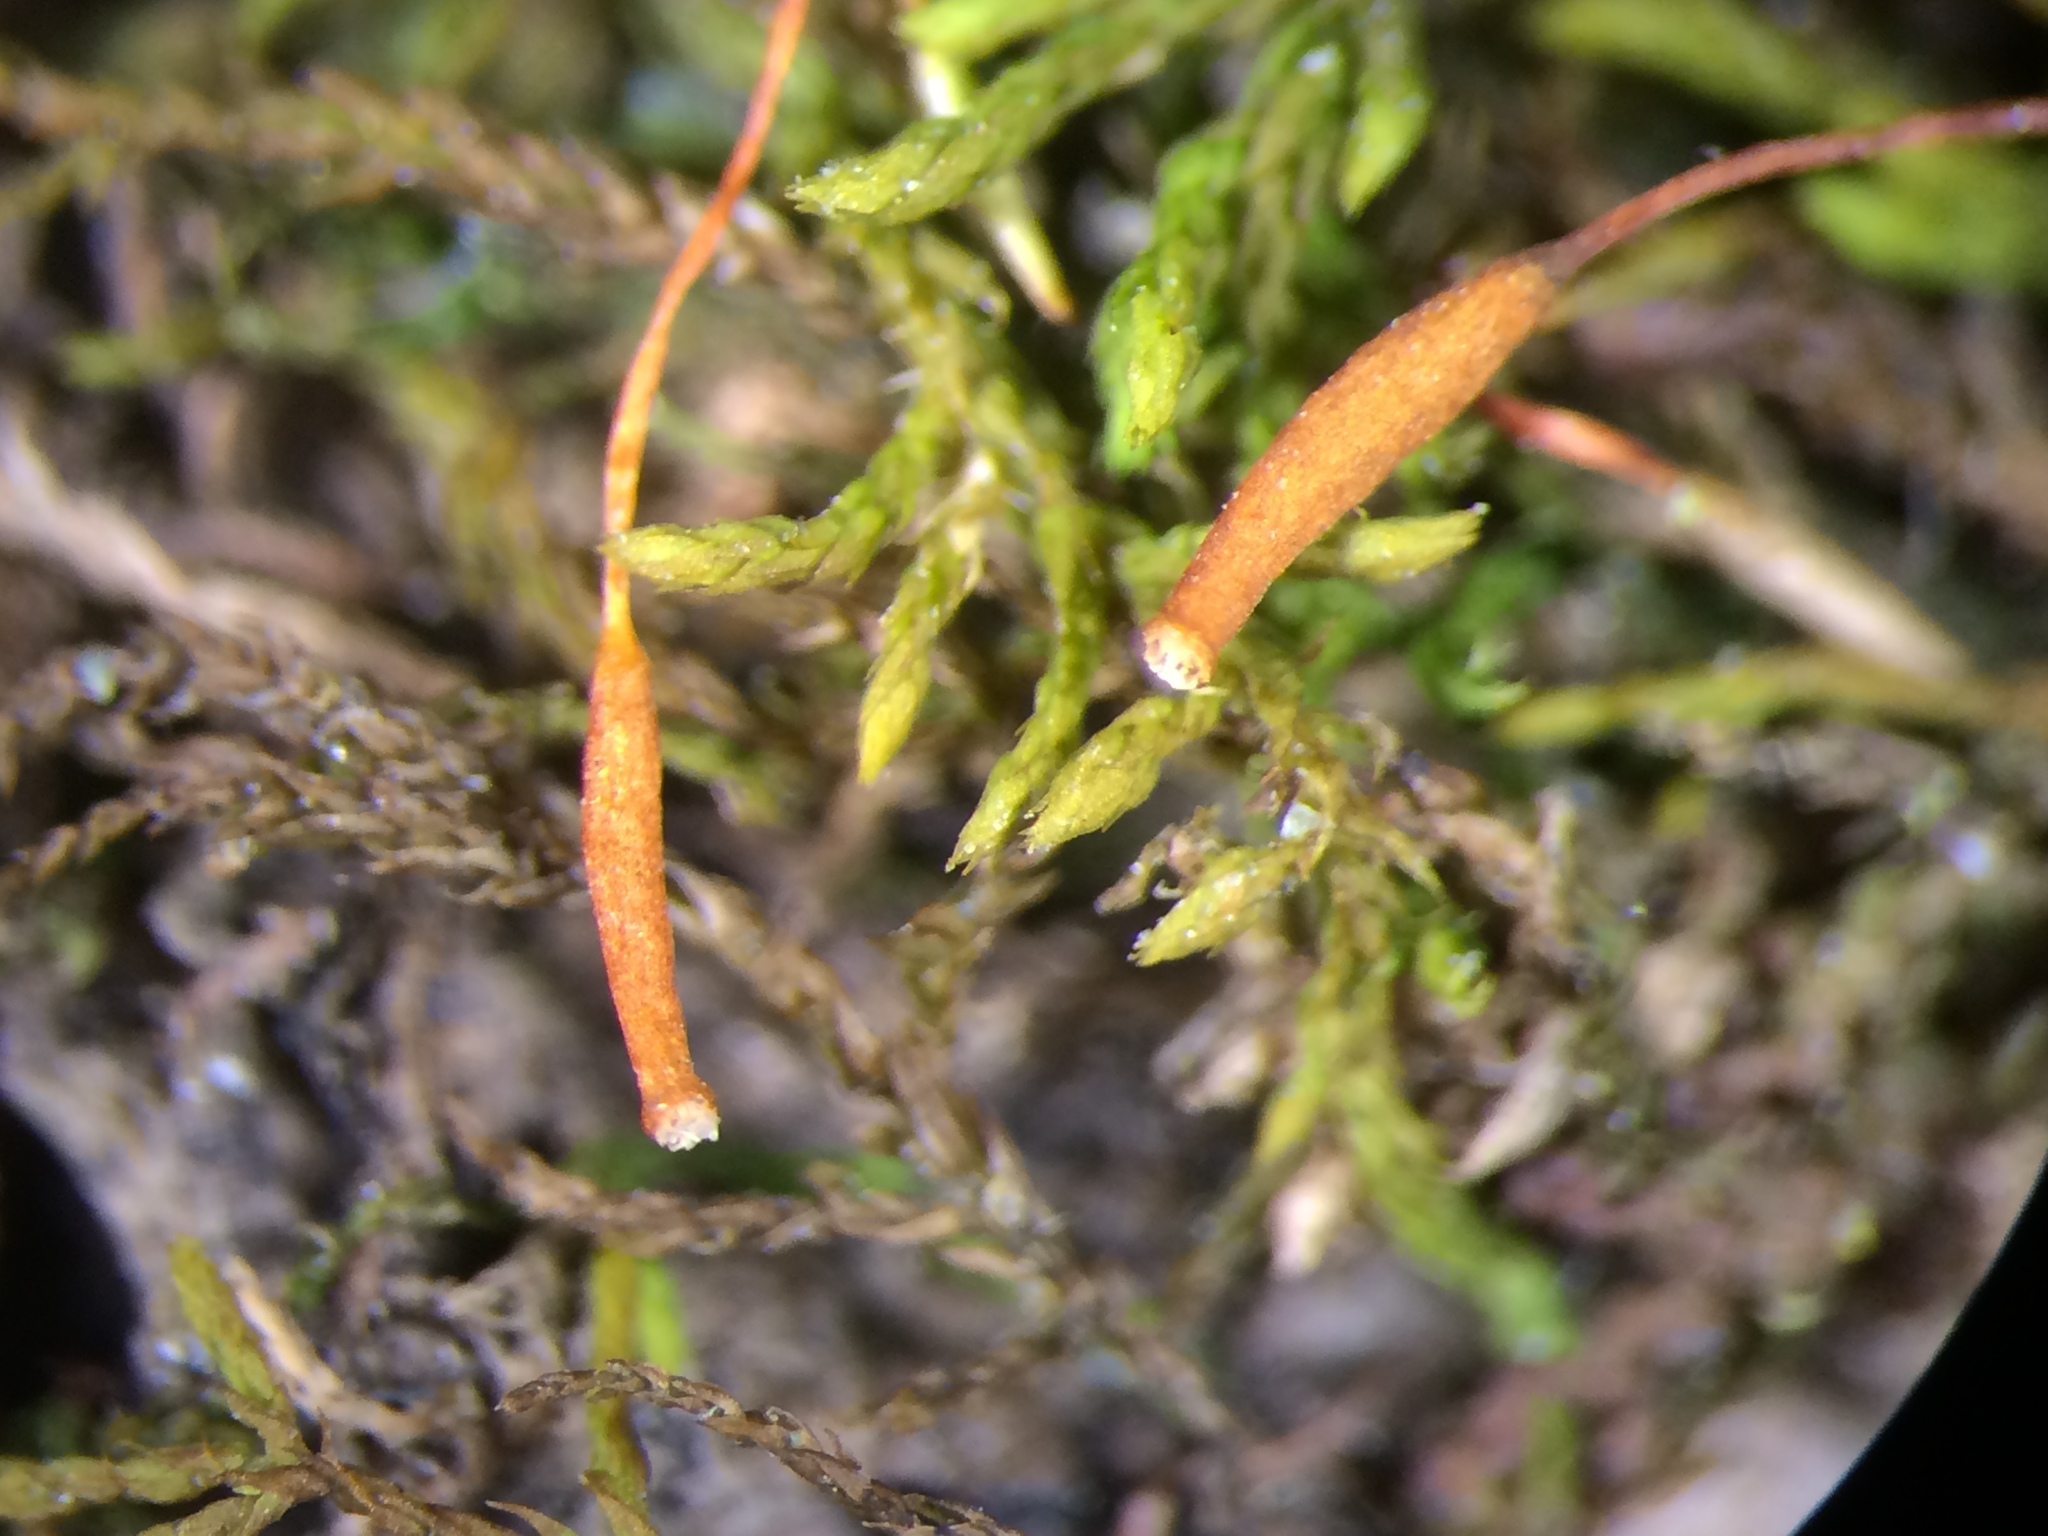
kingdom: Plantae
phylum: Bryophyta
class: Bryopsida
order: Hypnales
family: Leskeaceae
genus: Leskea
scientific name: Leskea polycarpa
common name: Many-fruited leske's moss
